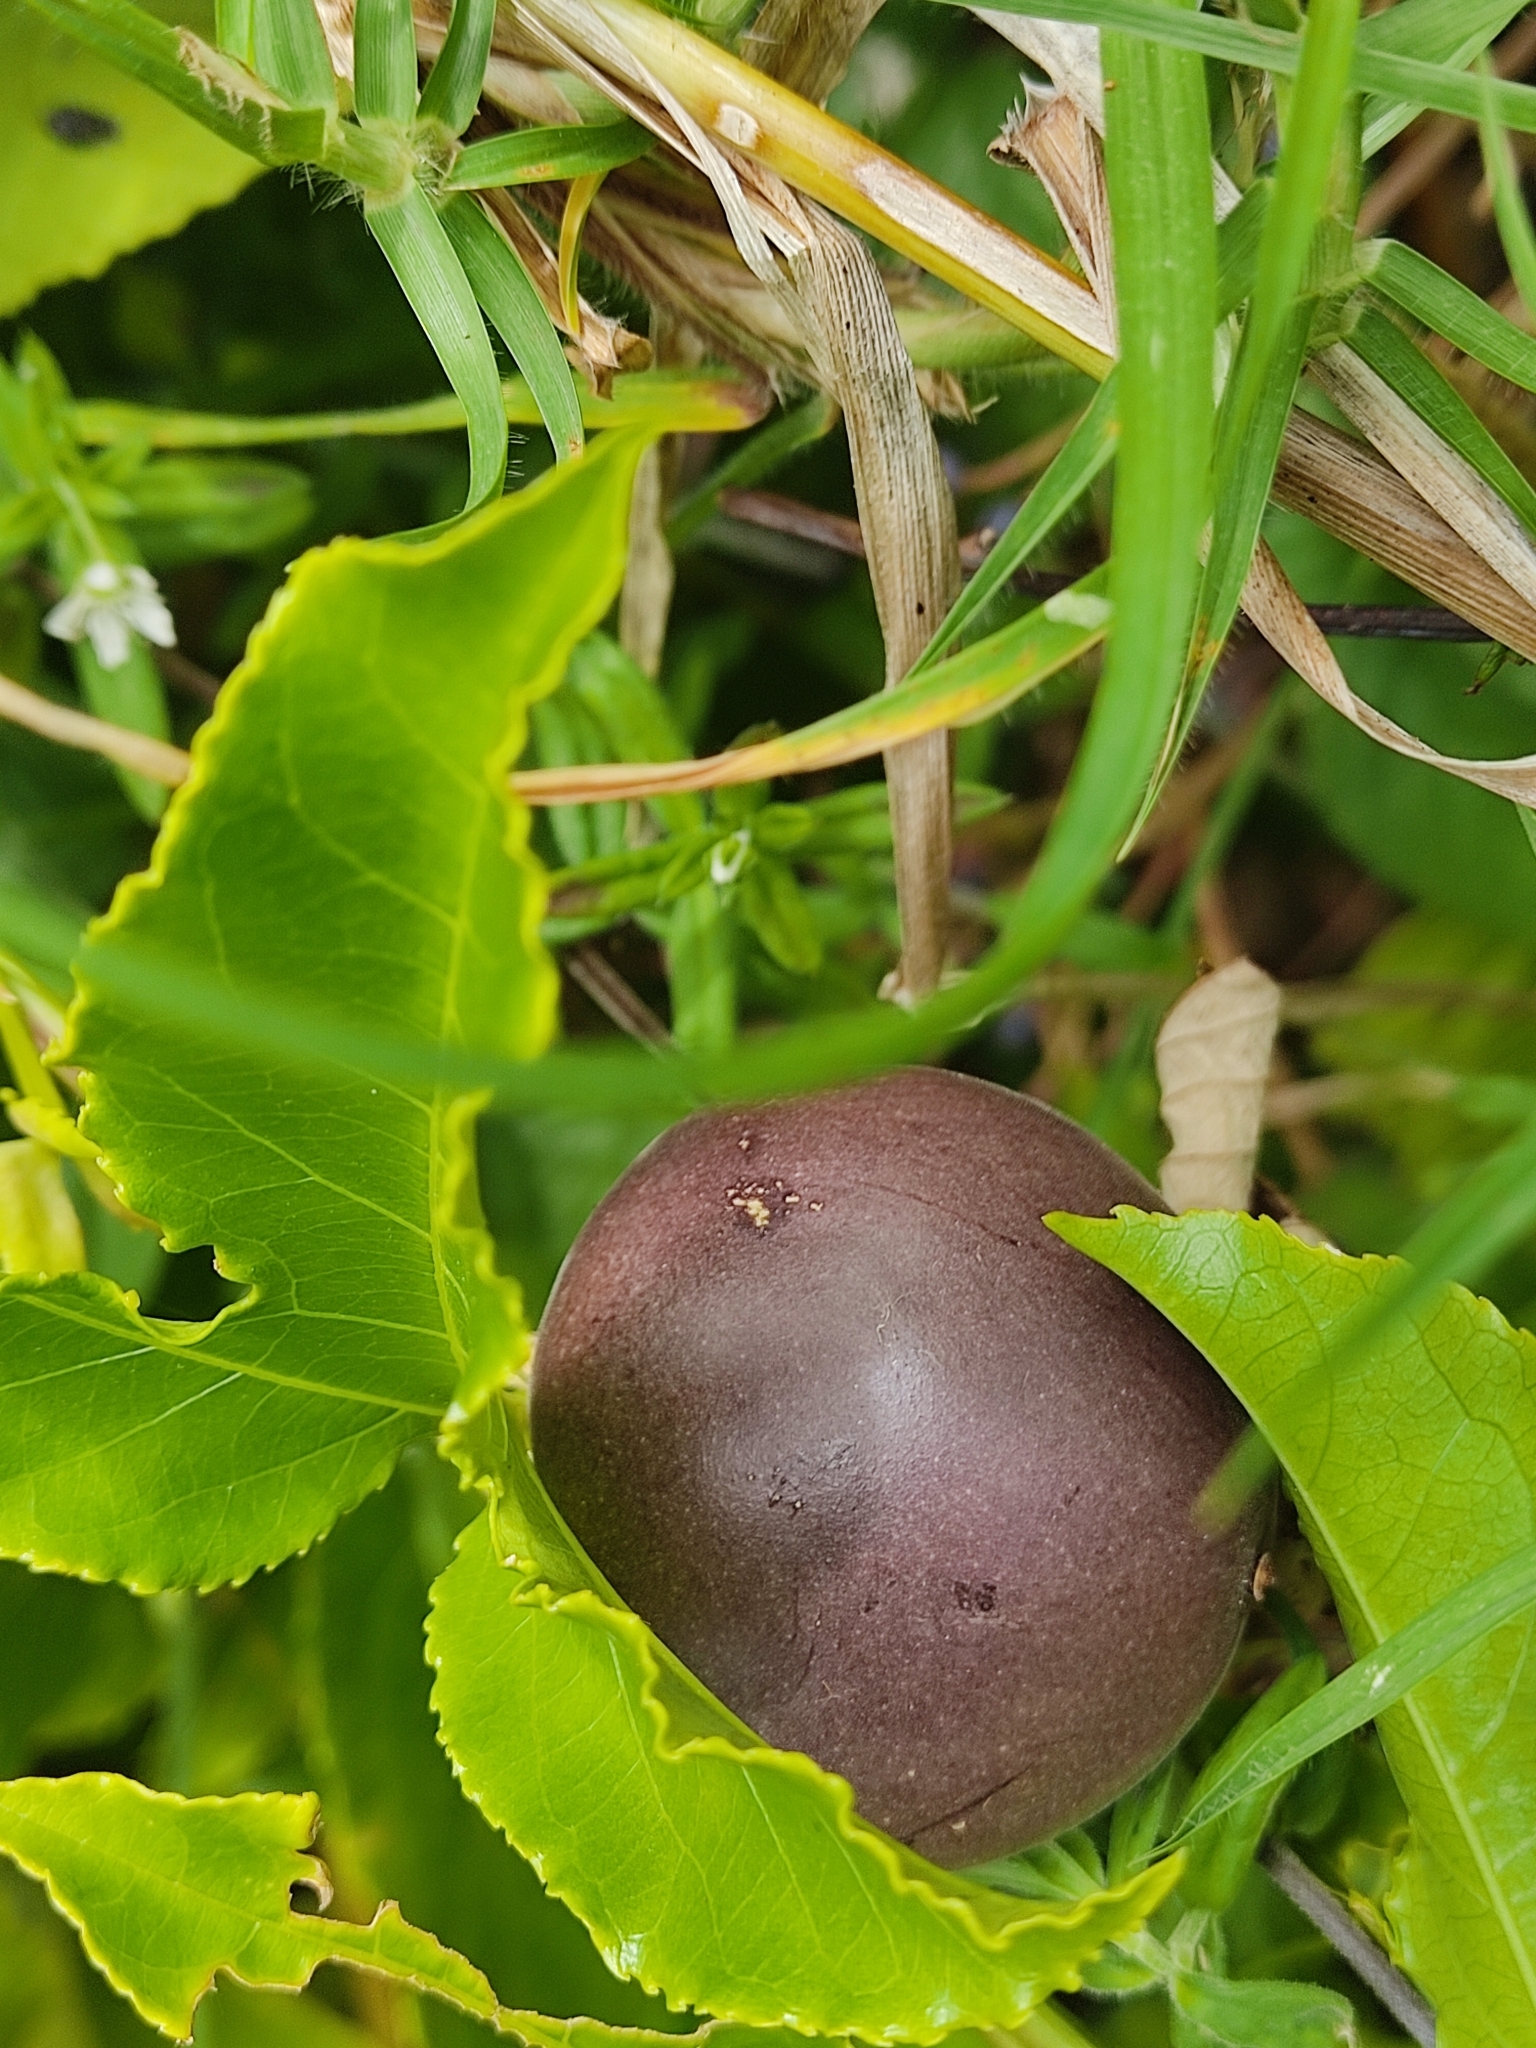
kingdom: Plantae
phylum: Tracheophyta
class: Magnoliopsida
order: Malpighiales
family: Passifloraceae
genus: Passiflora
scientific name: Passiflora edulis
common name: Purple granadilla
